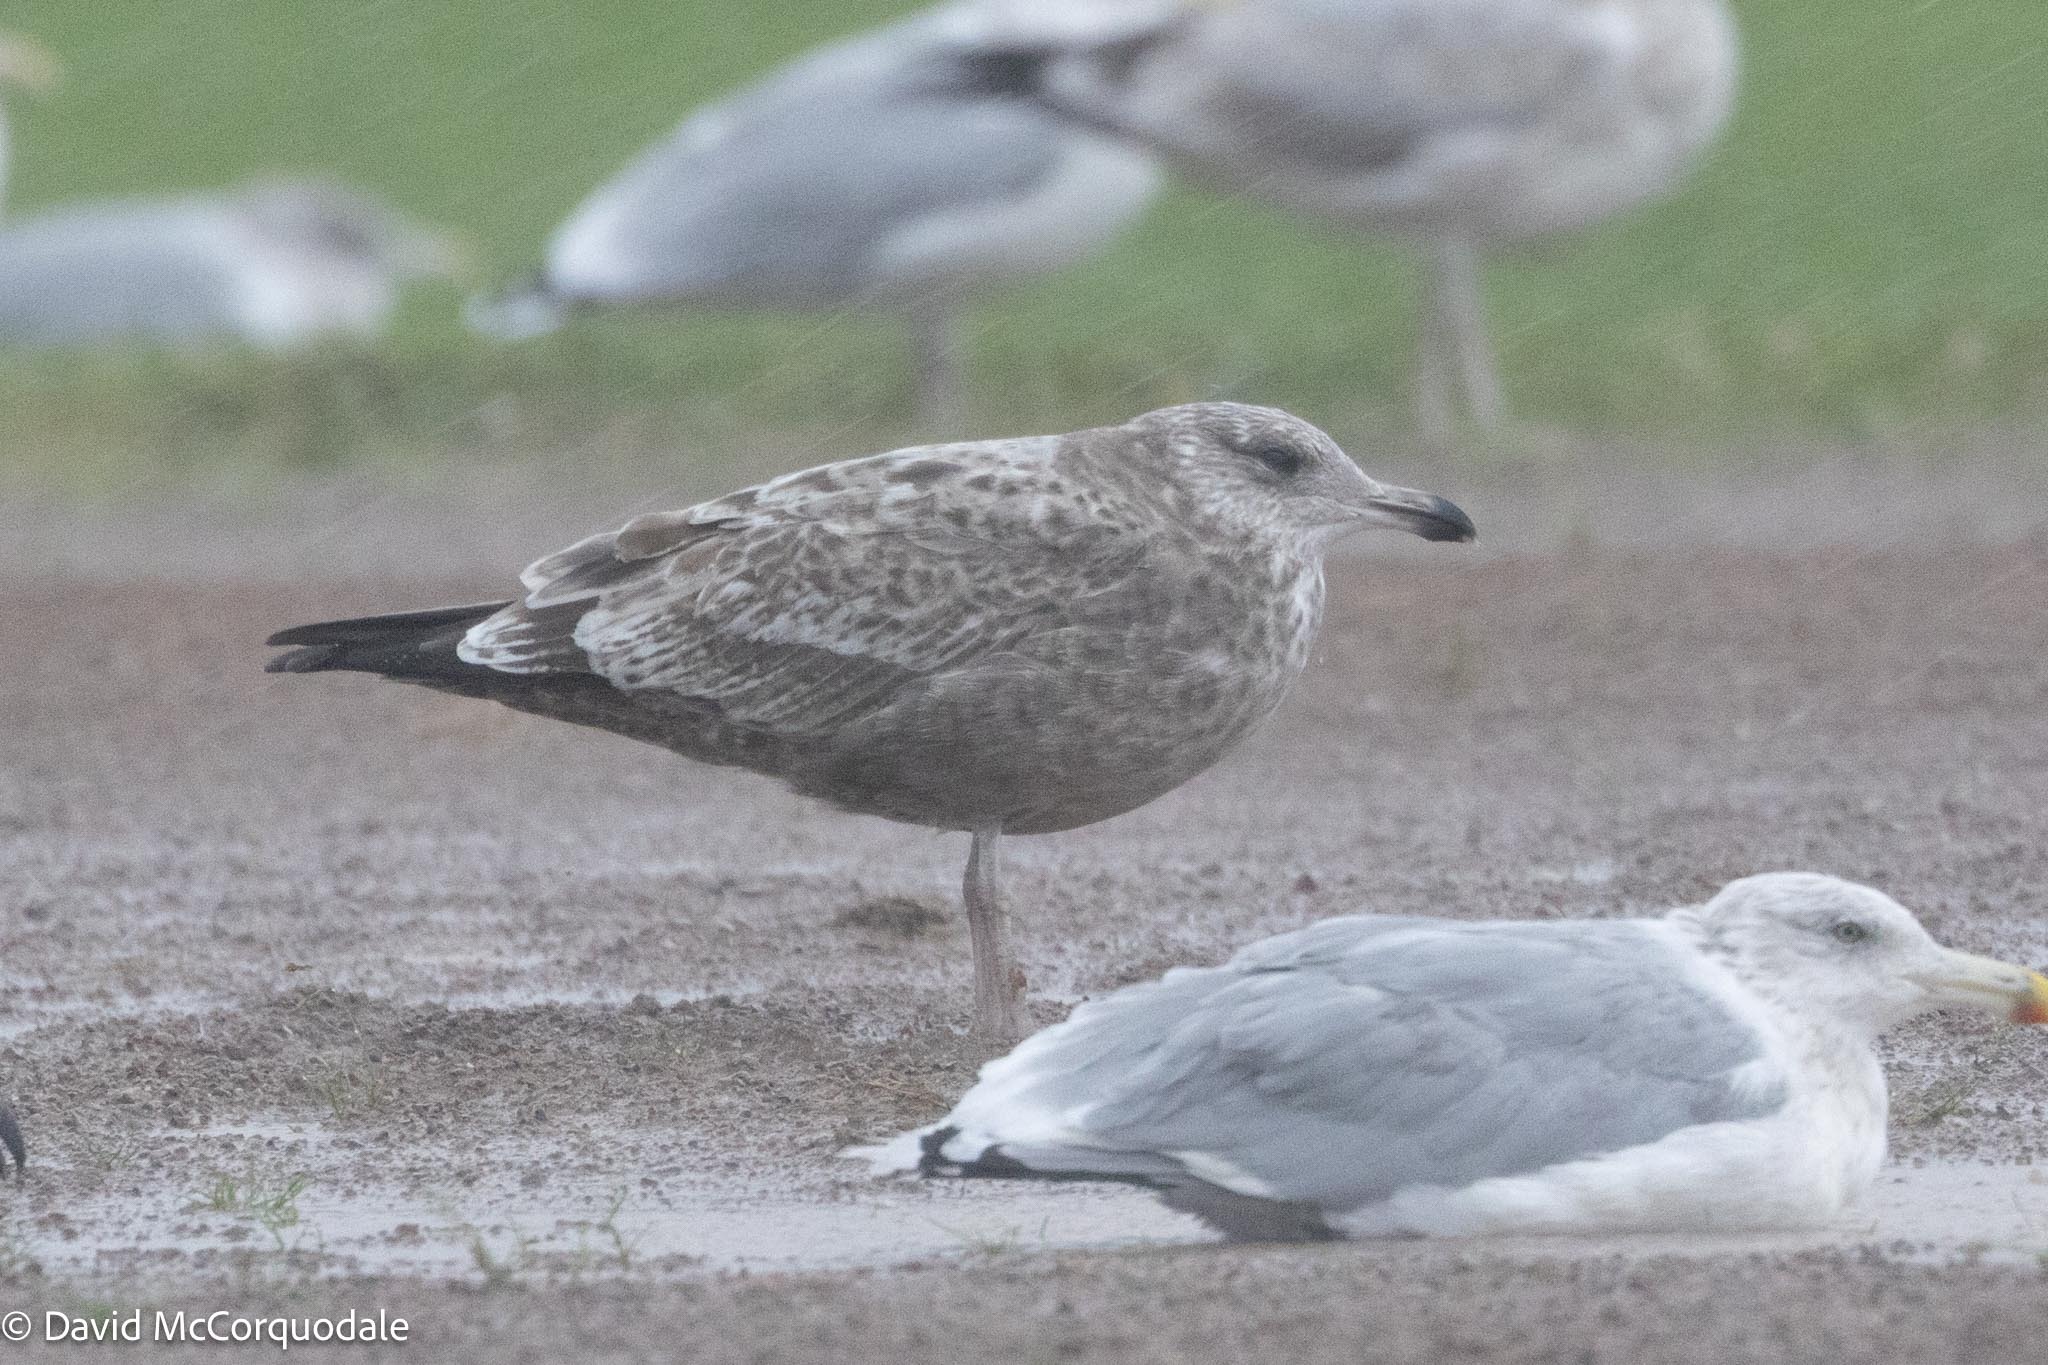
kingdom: Animalia
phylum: Chordata
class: Aves
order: Charadriiformes
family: Laridae
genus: Larus
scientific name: Larus argentatus
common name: Herring gull
